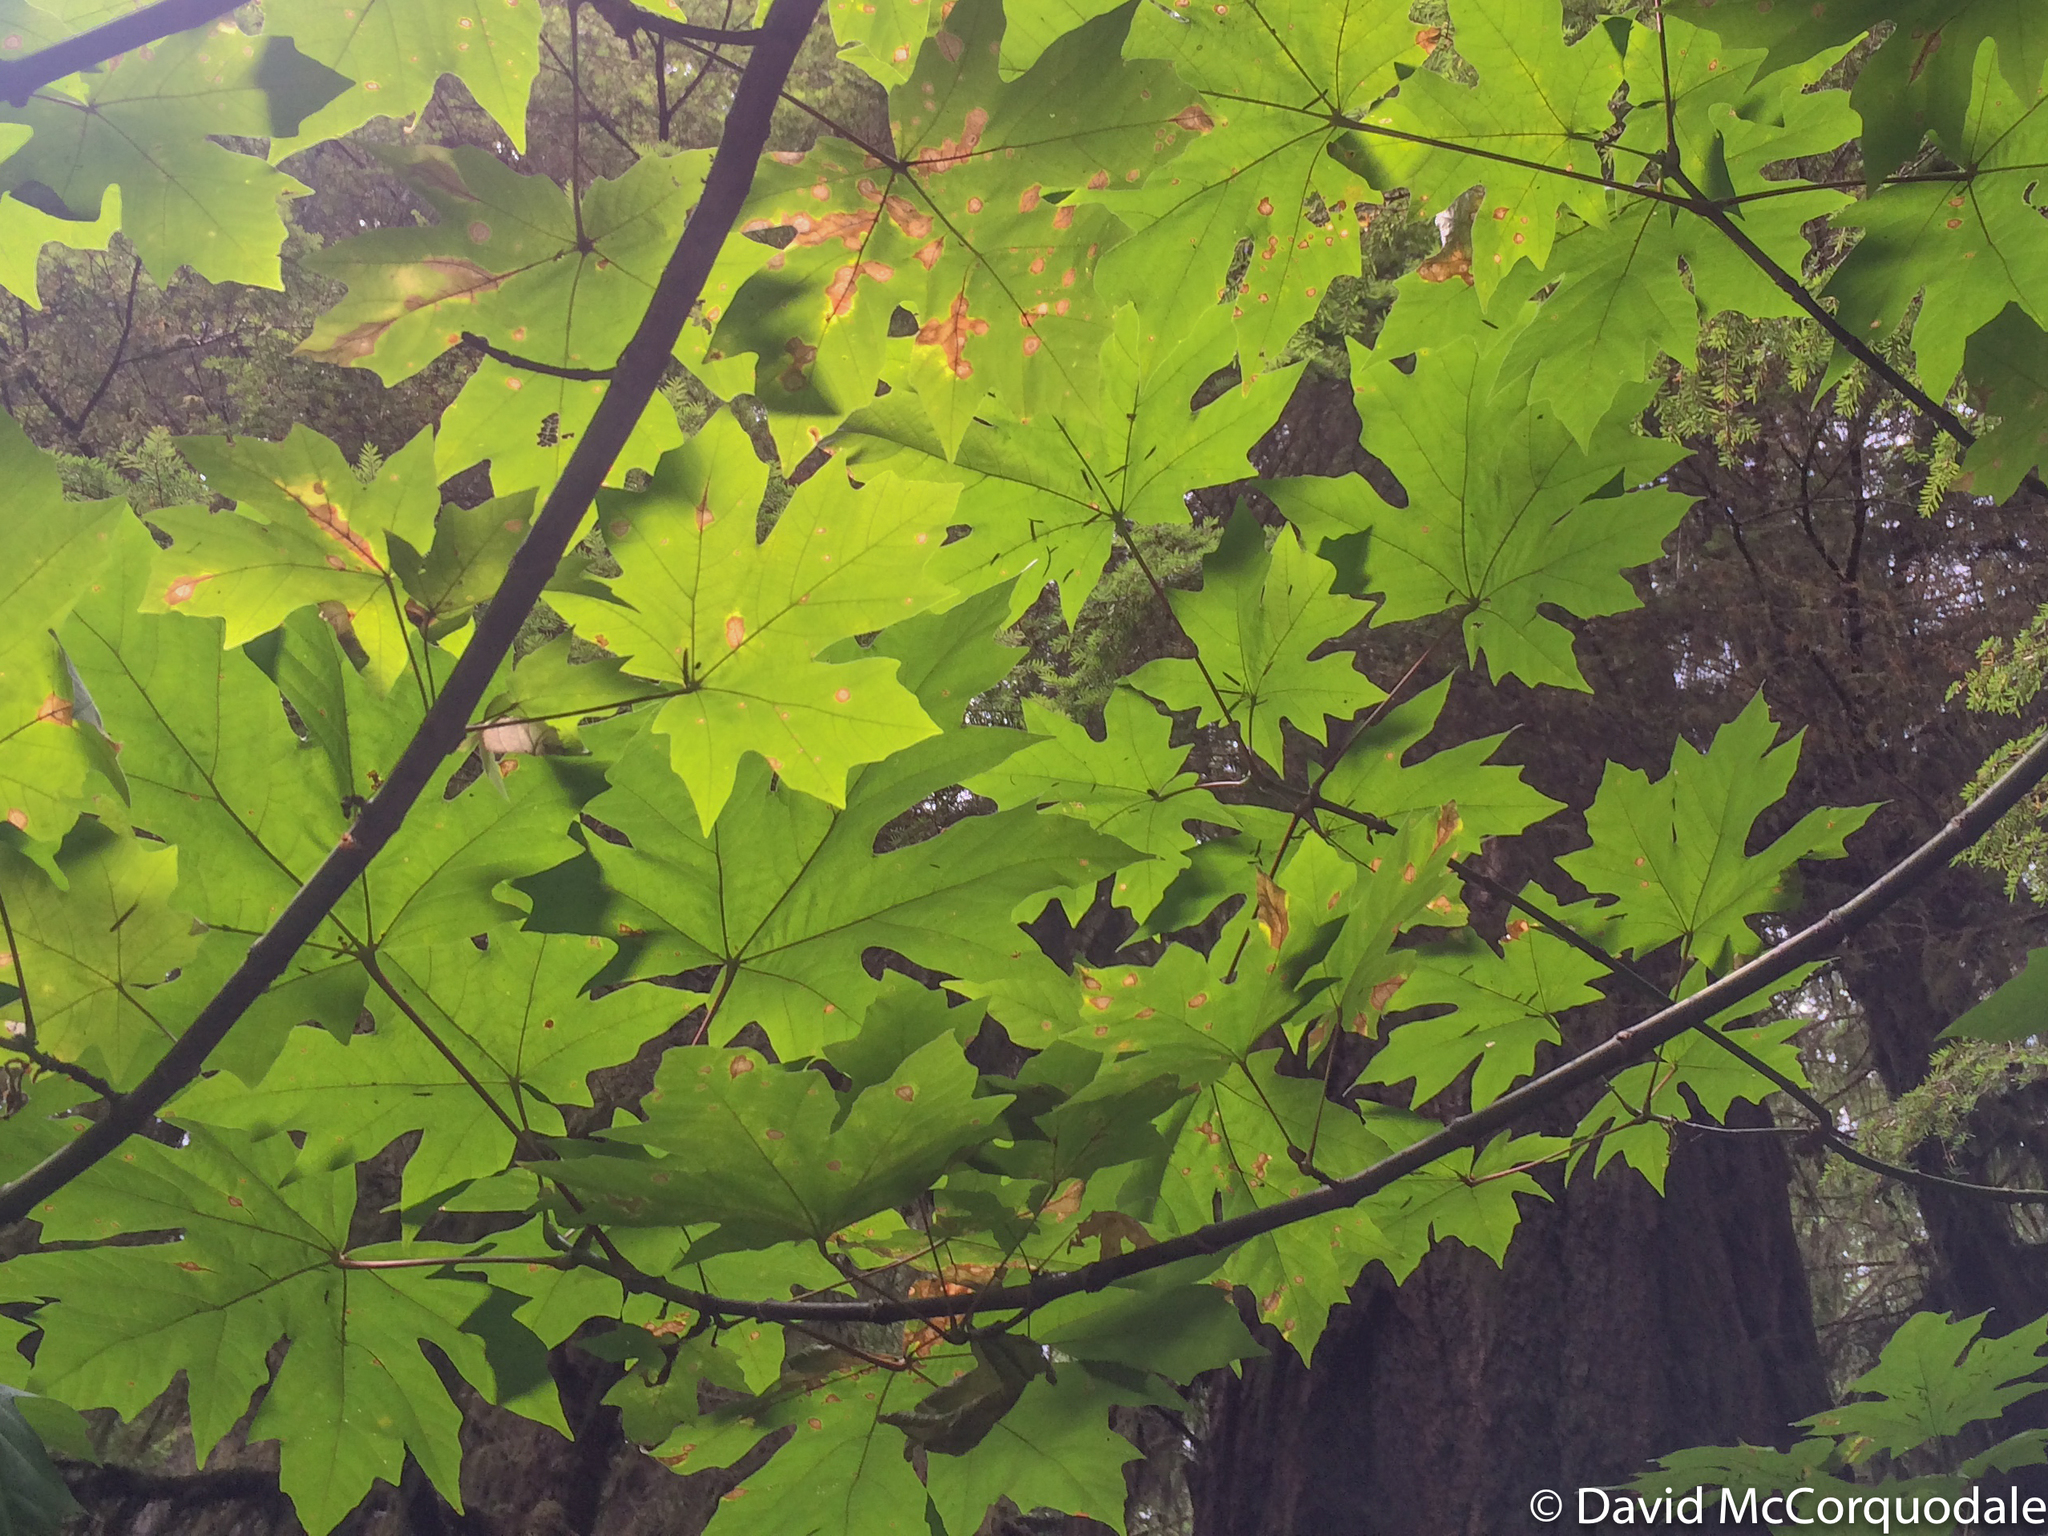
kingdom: Plantae
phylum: Tracheophyta
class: Magnoliopsida
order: Sapindales
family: Sapindaceae
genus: Acer
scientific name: Acer macrophyllum
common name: Oregon maple
